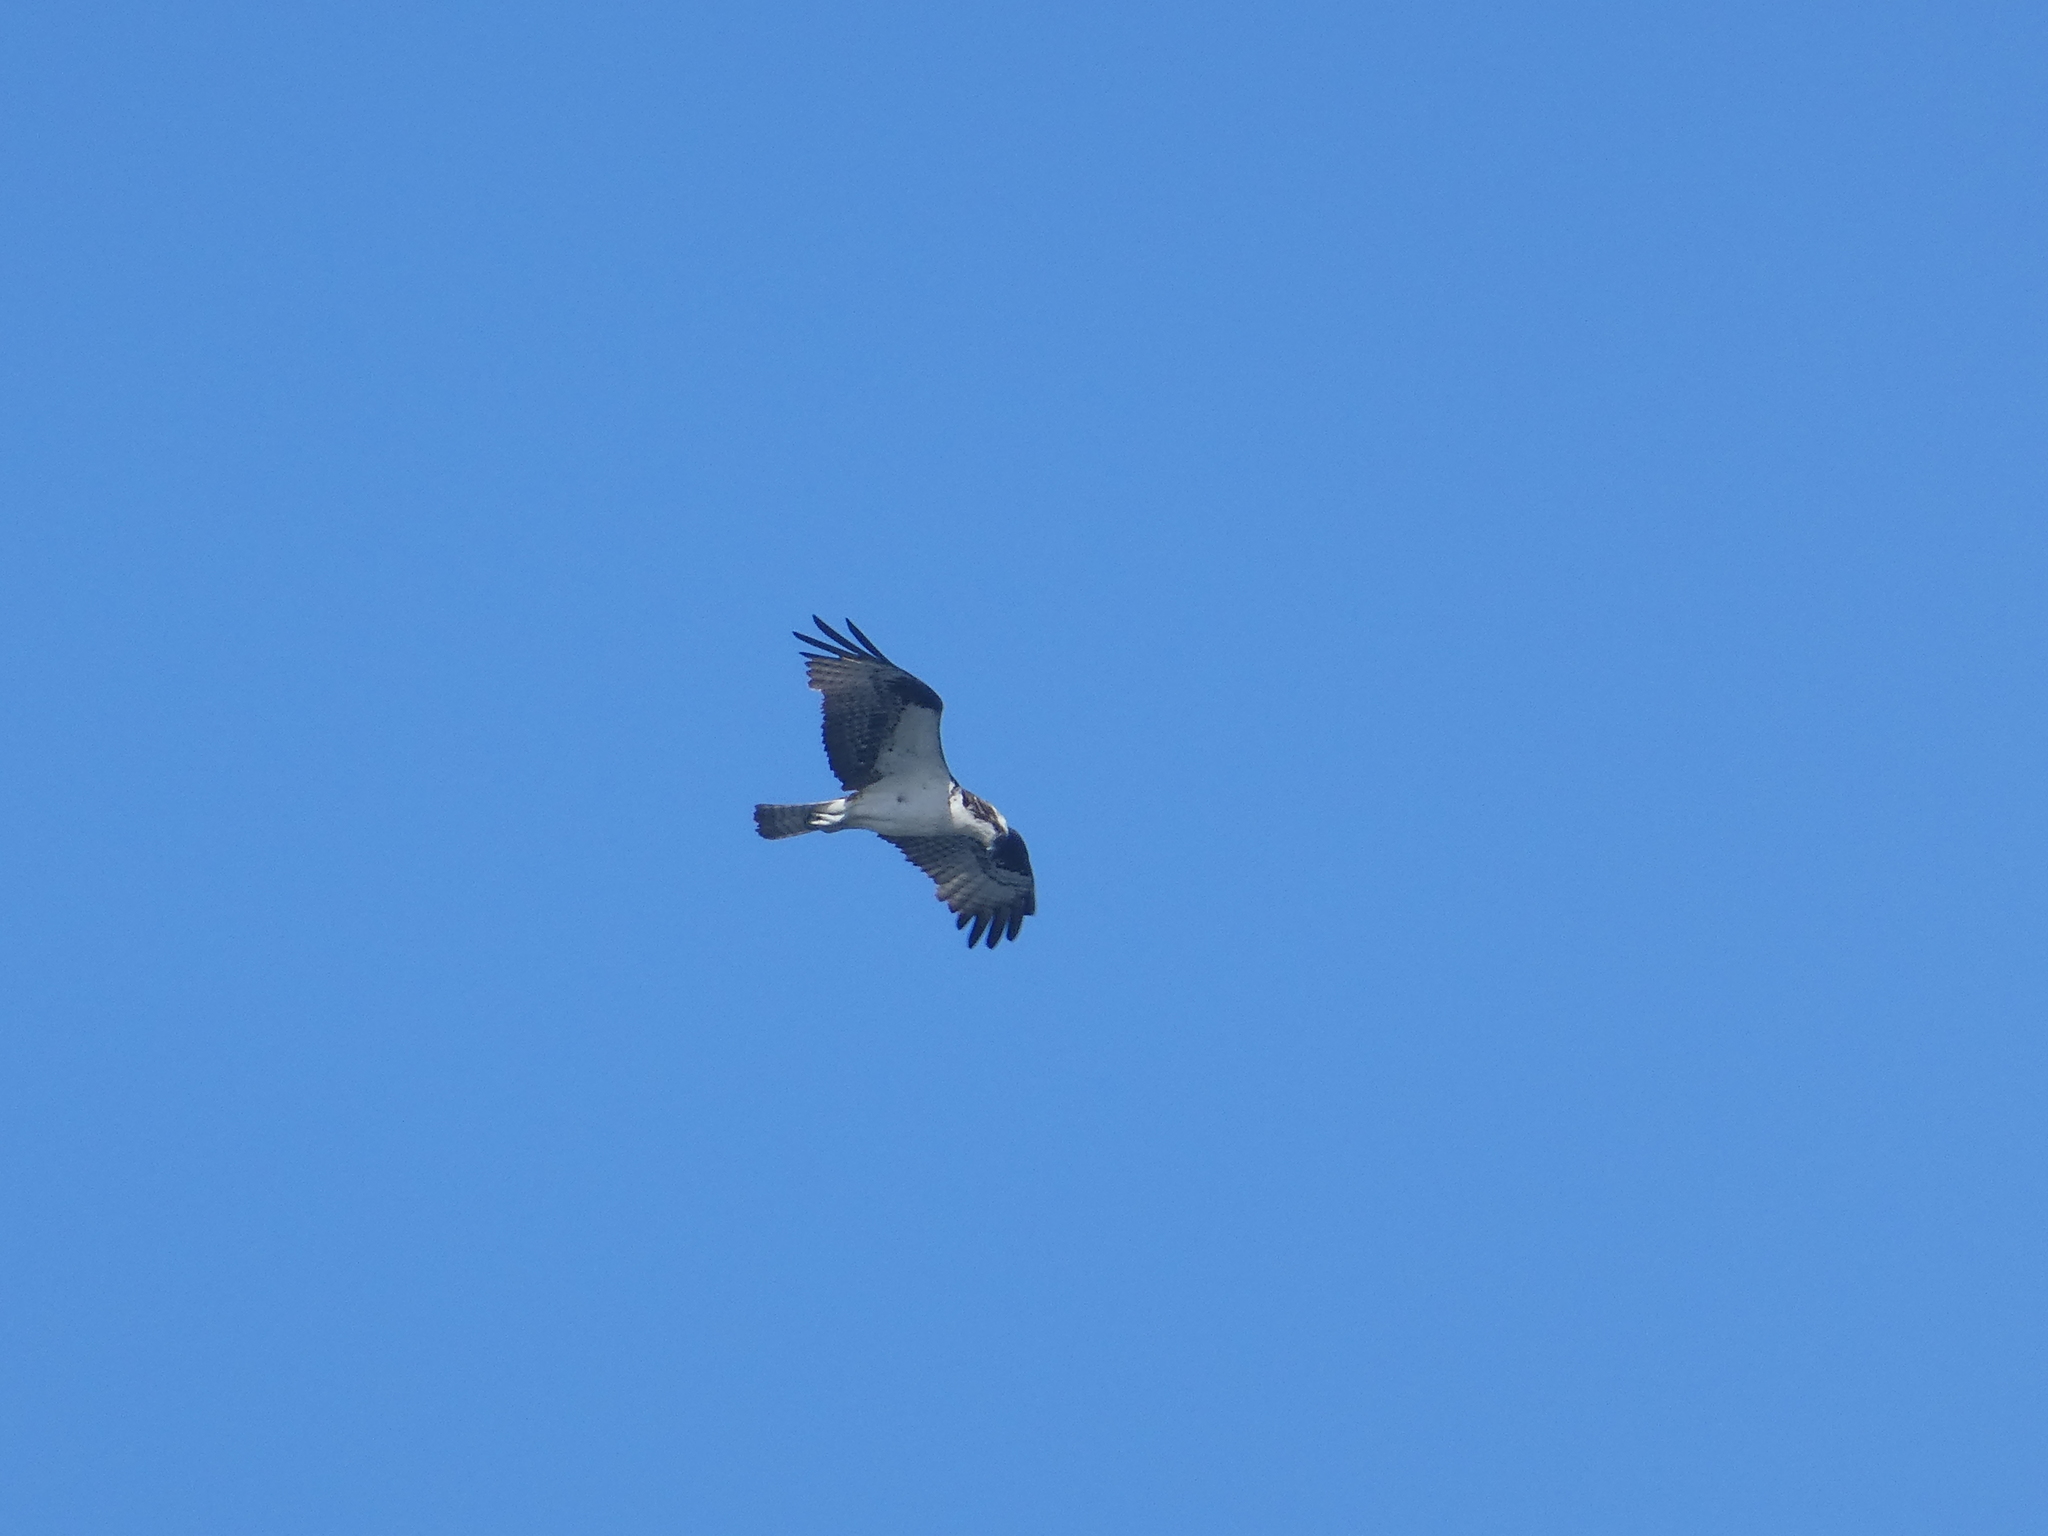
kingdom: Animalia
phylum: Chordata
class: Aves
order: Accipitriformes
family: Pandionidae
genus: Pandion
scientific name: Pandion haliaetus
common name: Osprey
